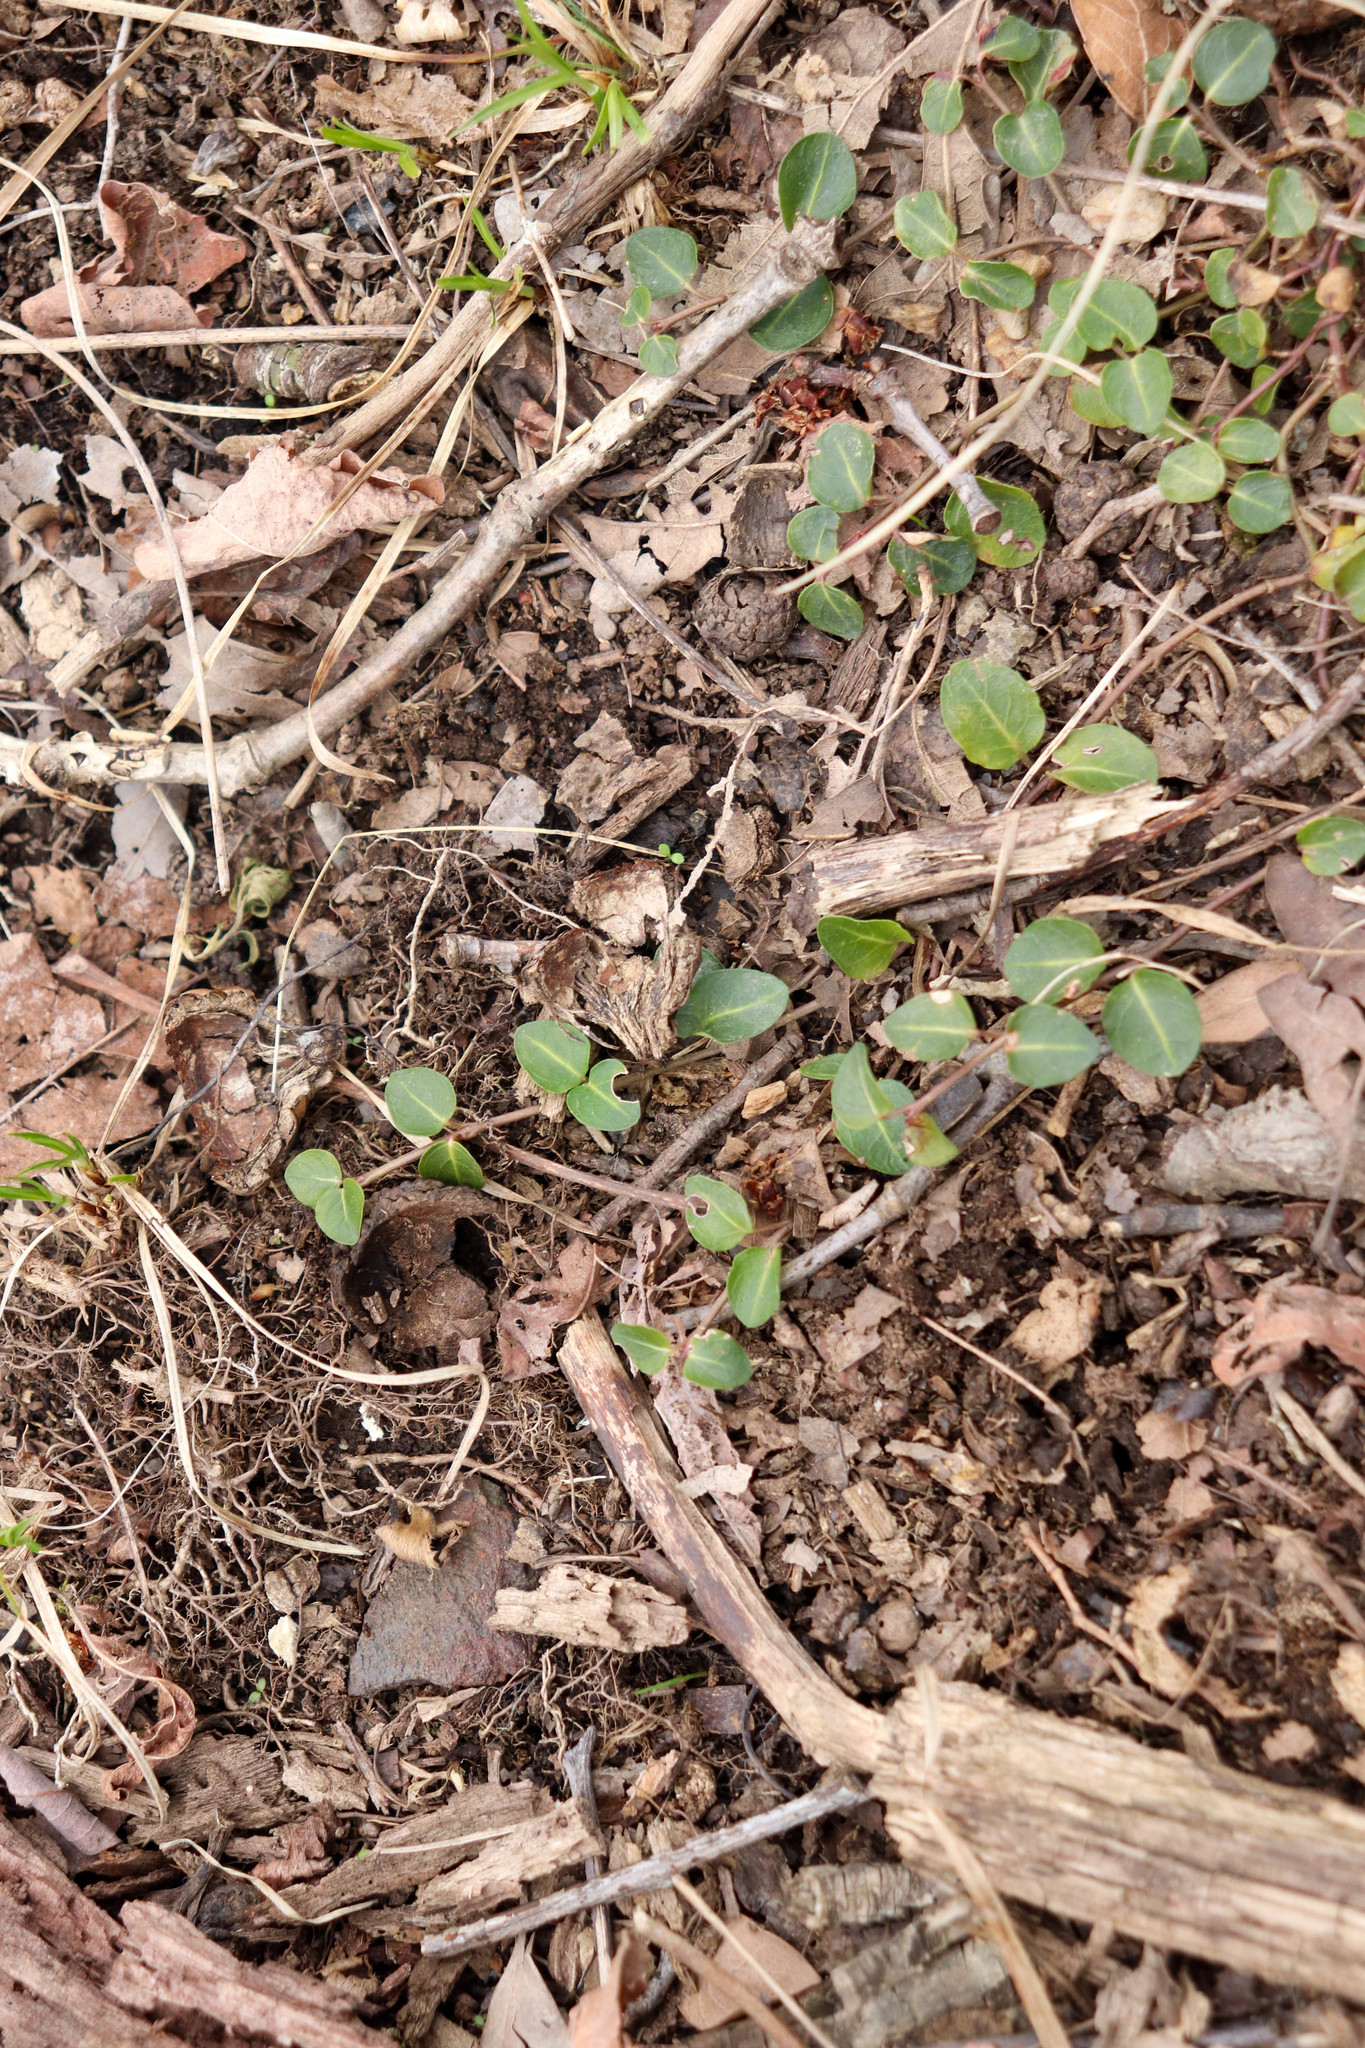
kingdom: Plantae
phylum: Tracheophyta
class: Magnoliopsida
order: Gentianales
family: Rubiaceae
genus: Mitchella
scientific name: Mitchella repens
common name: Partridge-berry
